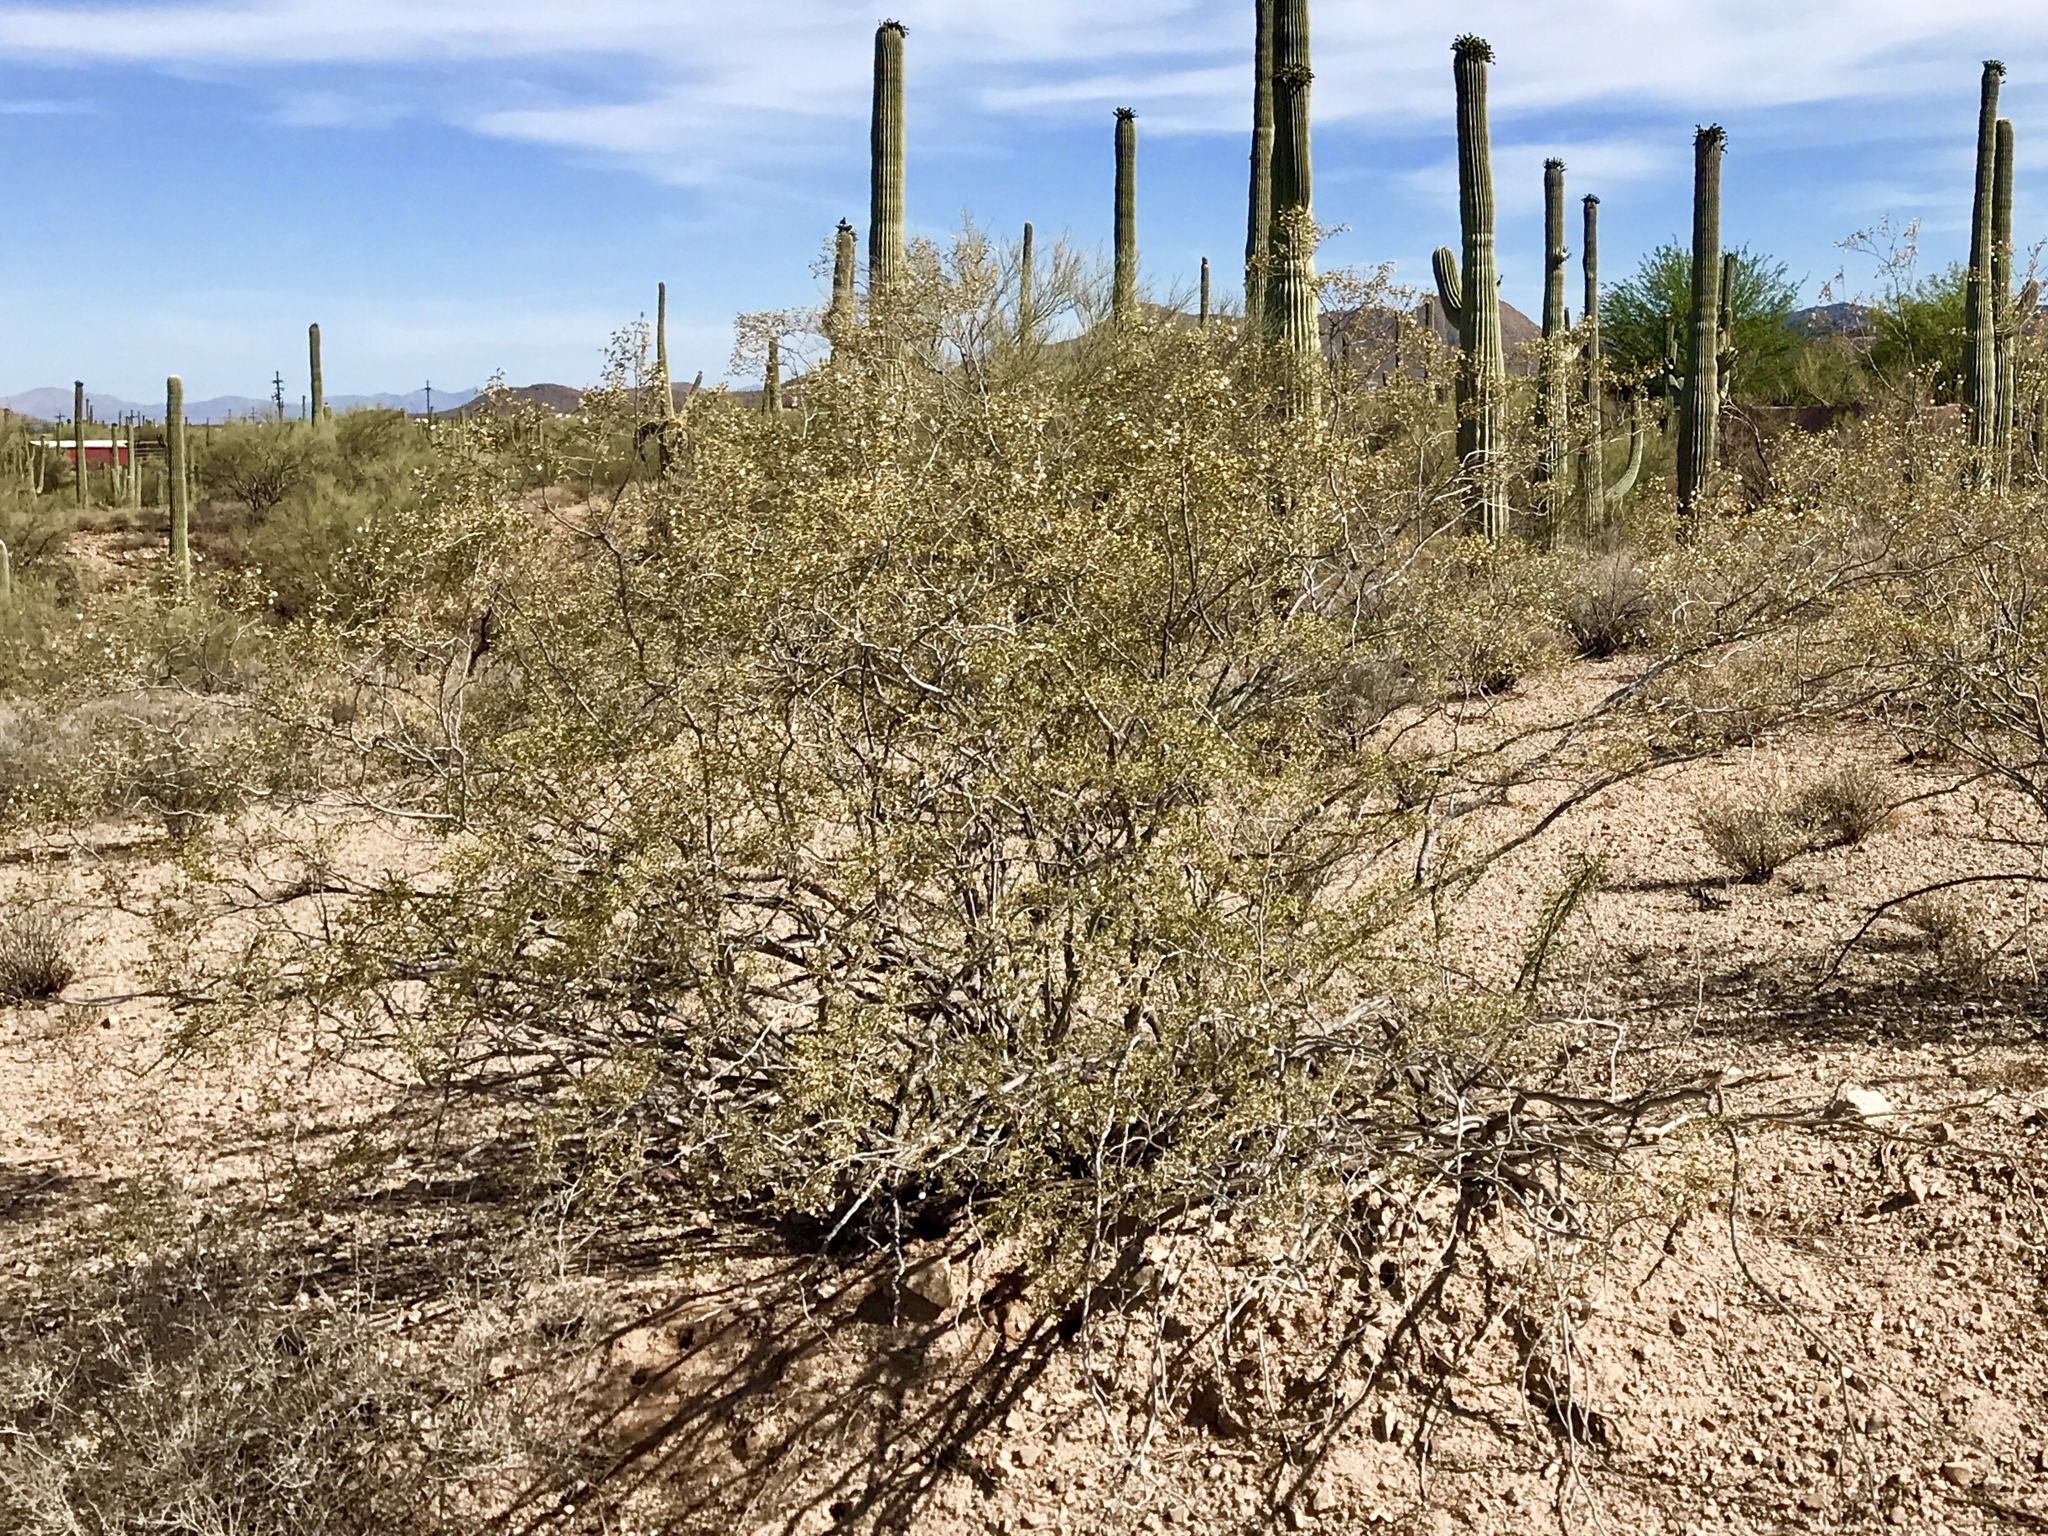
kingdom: Plantae
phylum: Tracheophyta
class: Magnoliopsida
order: Zygophyllales
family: Zygophyllaceae
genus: Larrea
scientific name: Larrea tridentata
